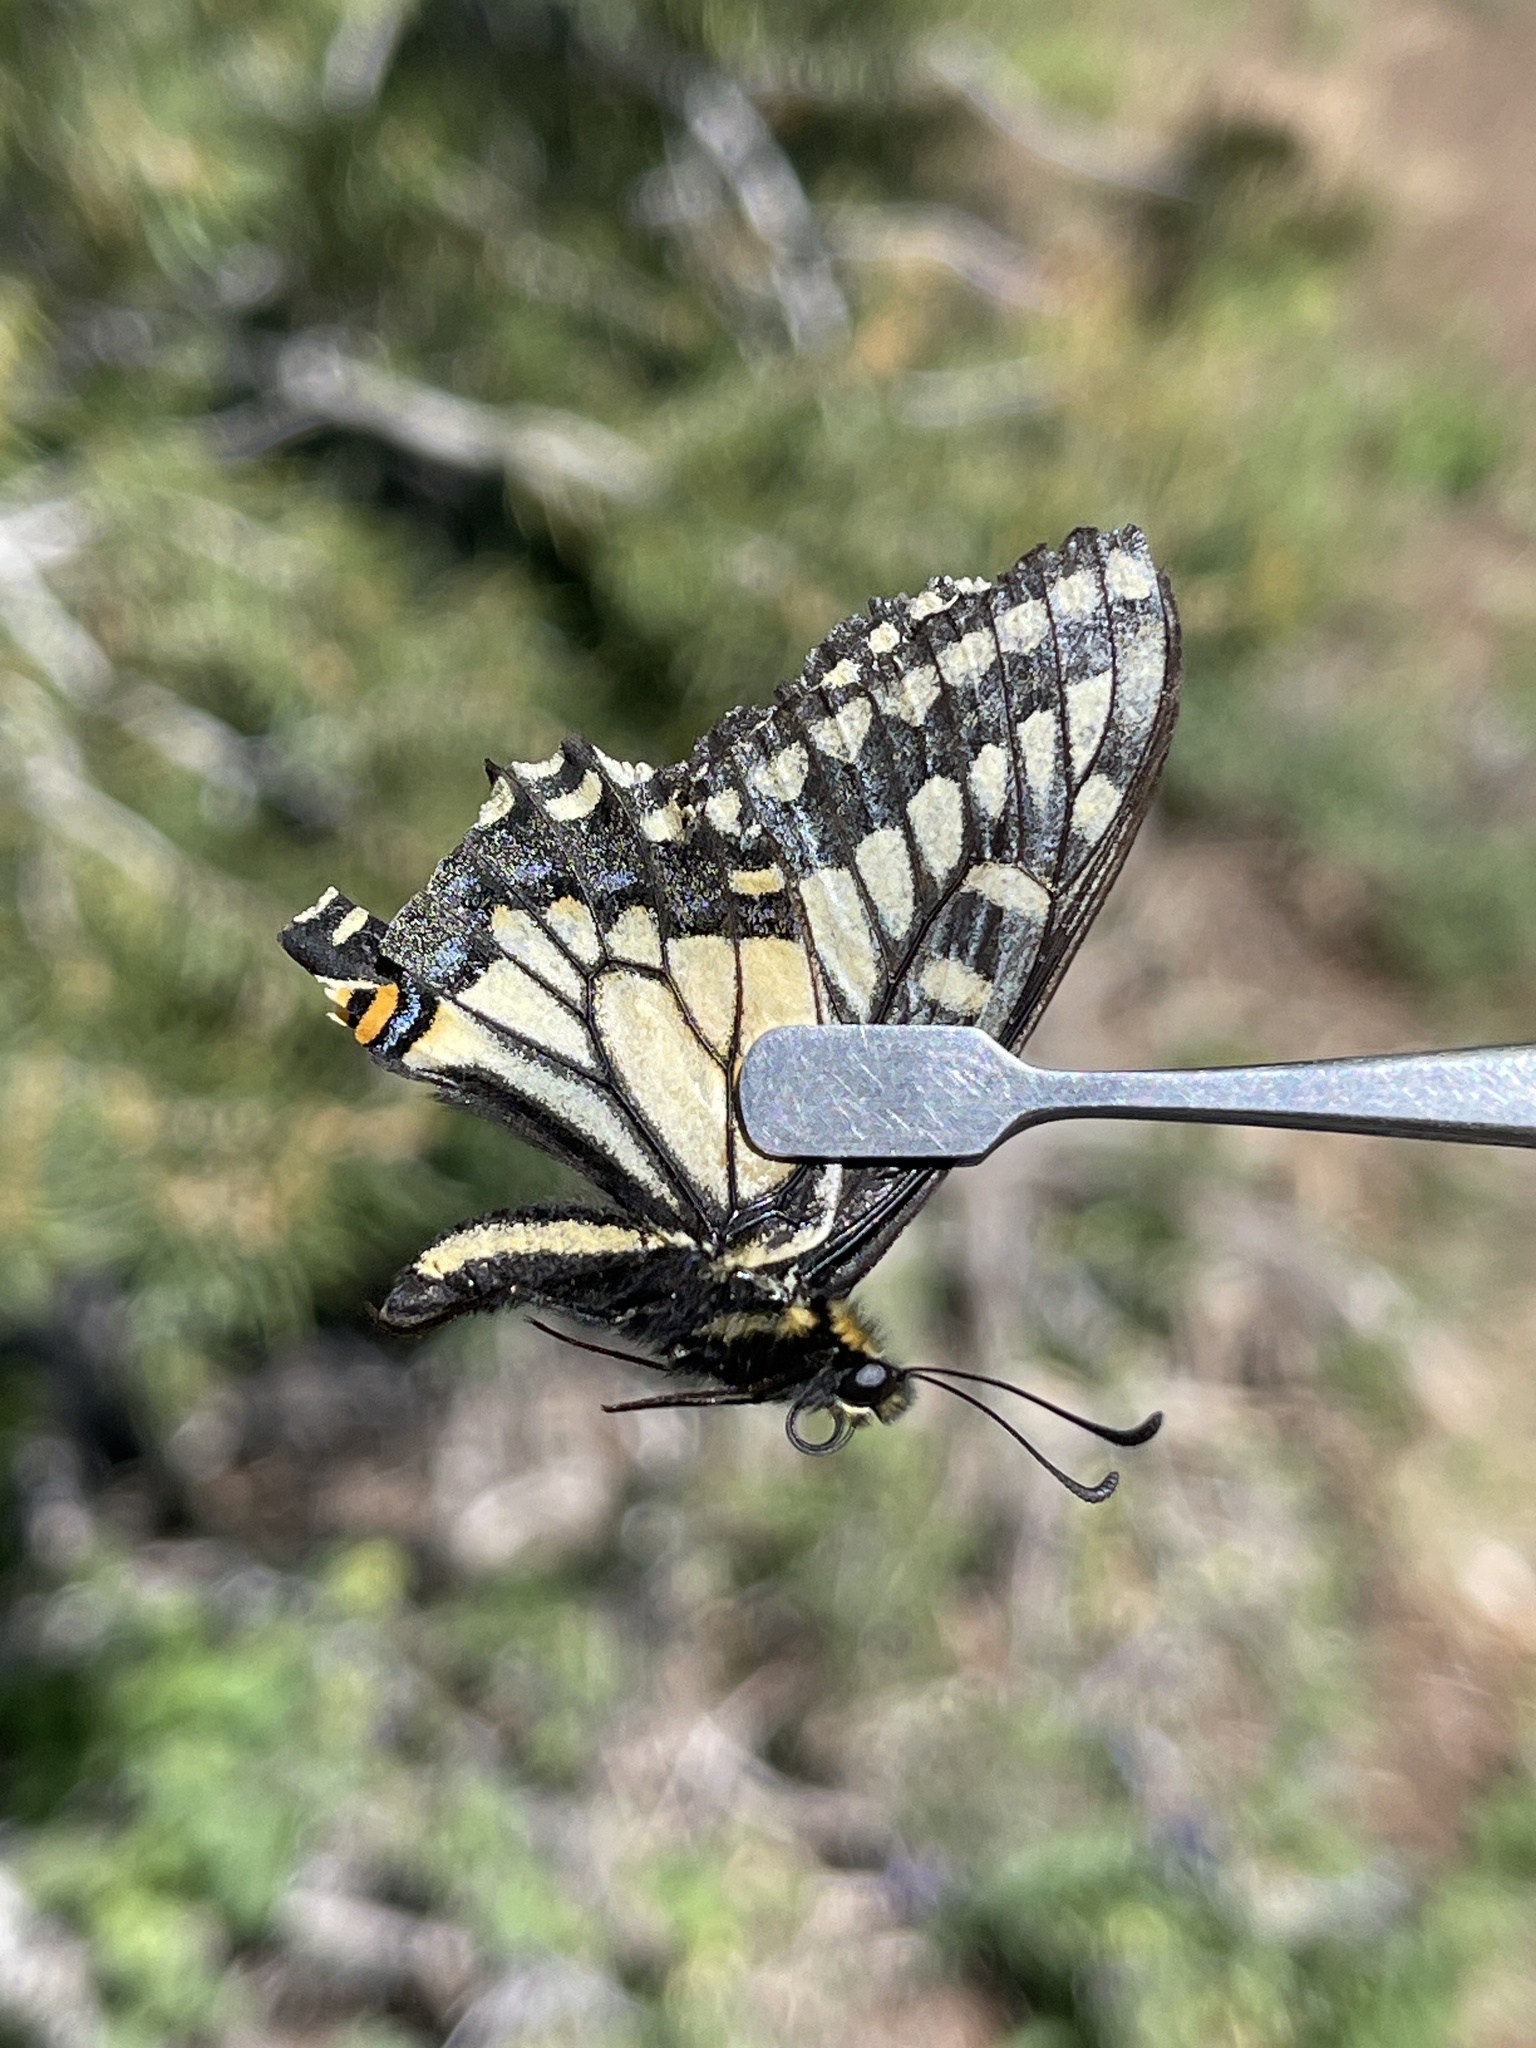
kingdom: Animalia
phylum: Arthropoda
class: Insecta
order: Lepidoptera
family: Papilionidae
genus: Papilio
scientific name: Papilio zelicaon
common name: Anise swallowtail
